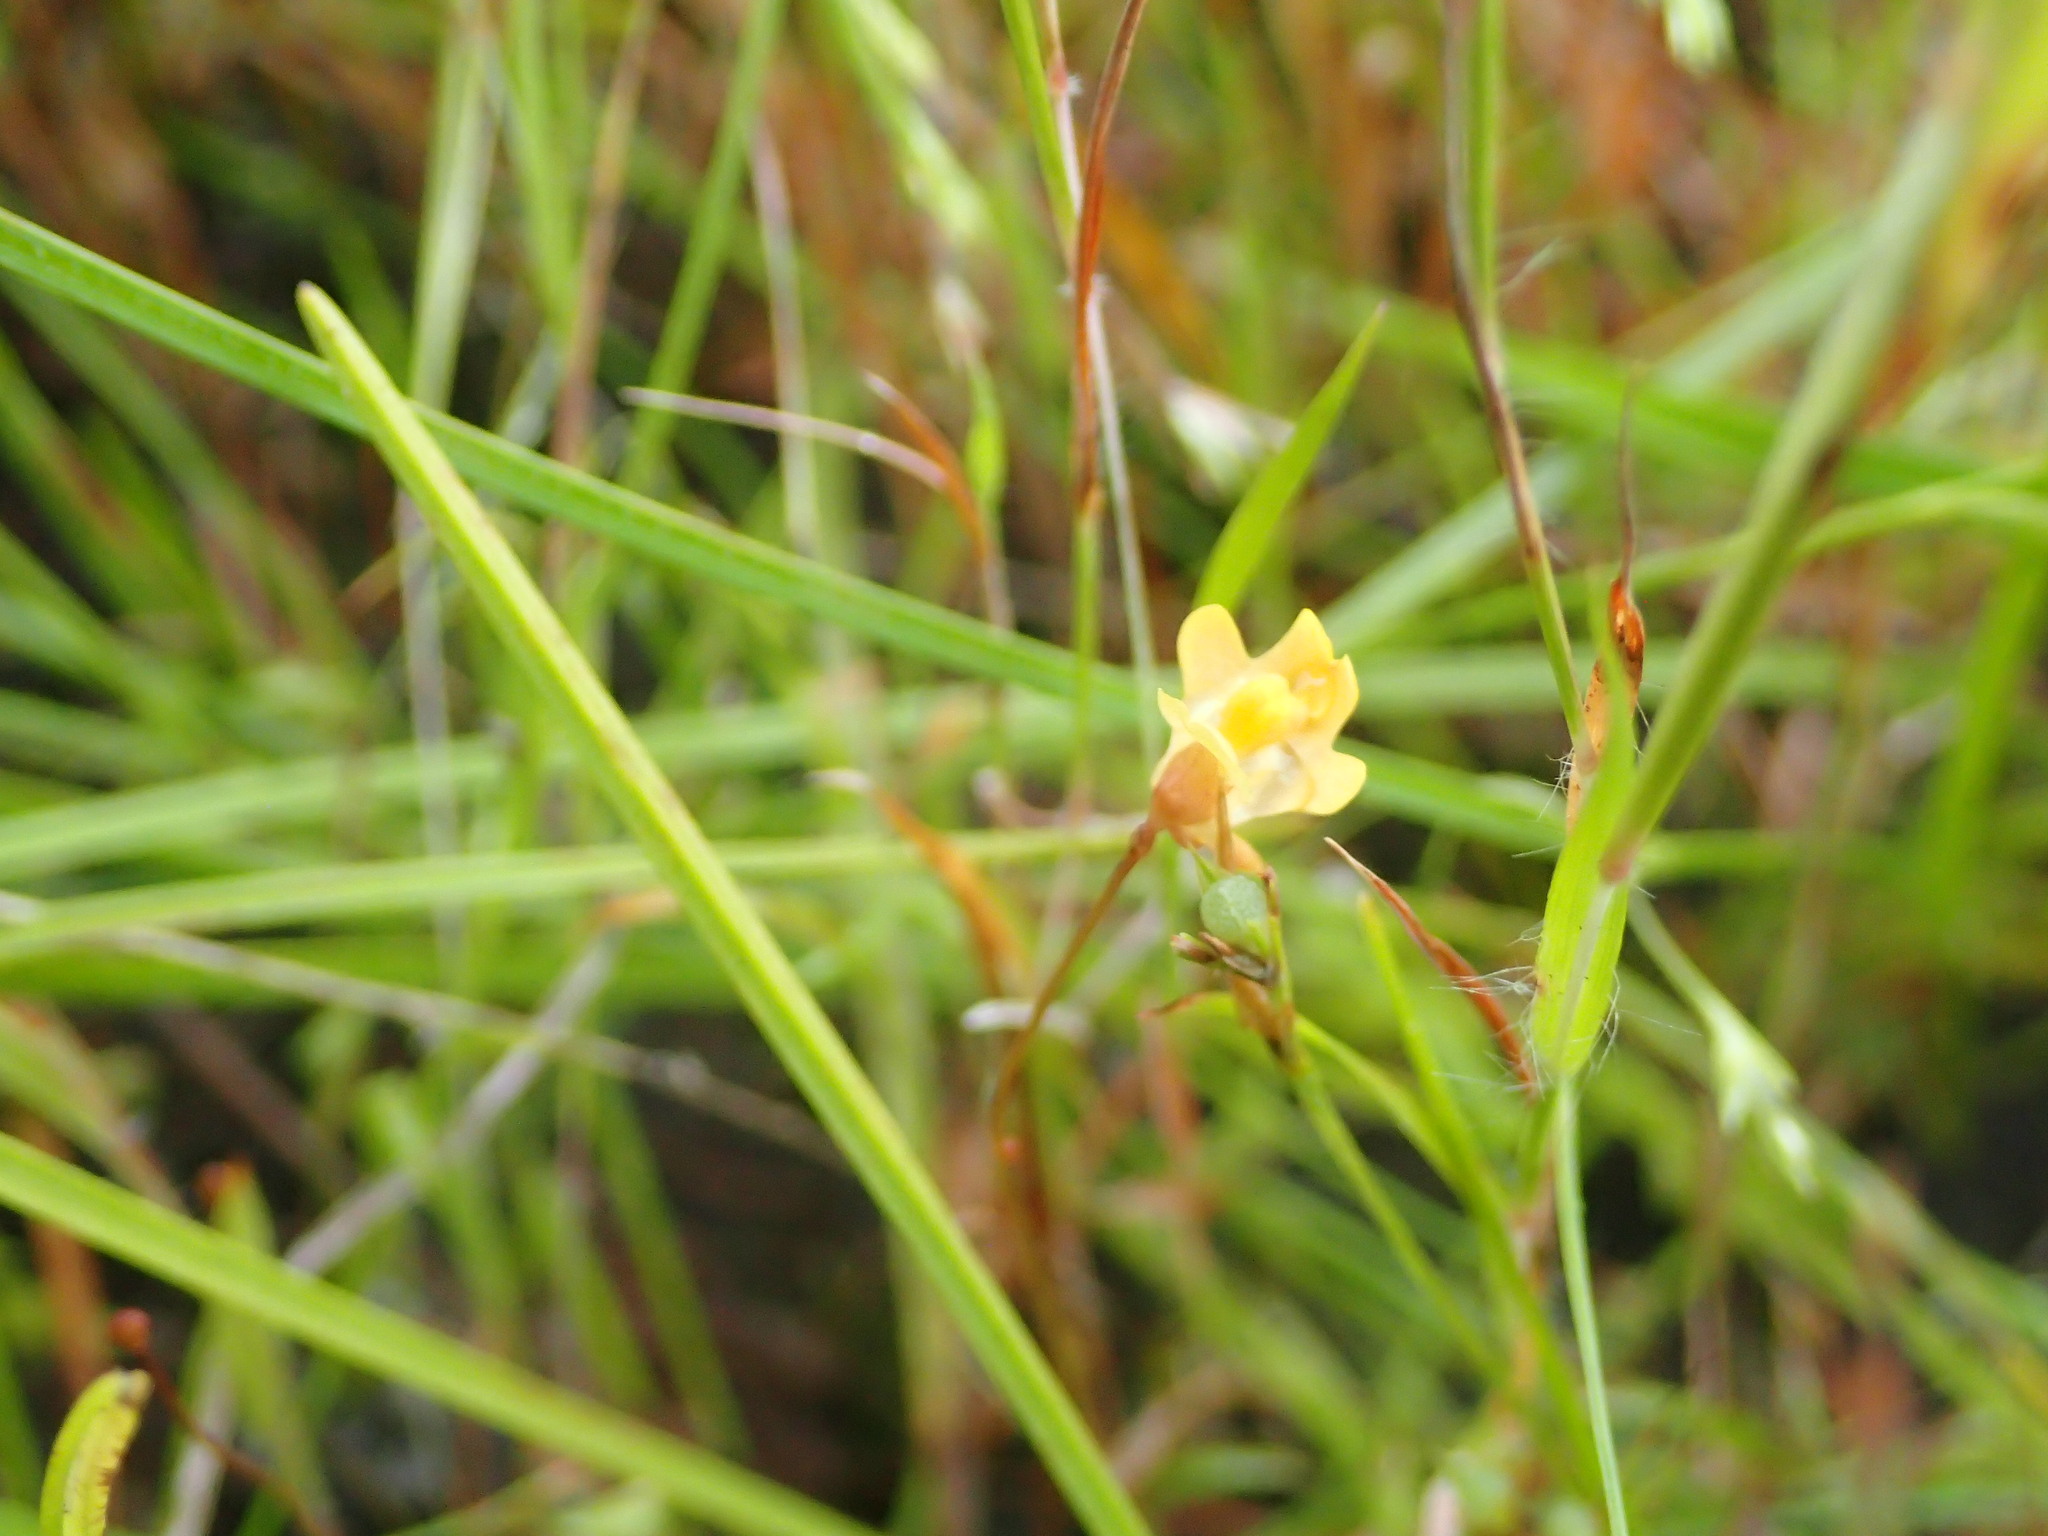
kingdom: Plantae
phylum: Tracheophyta
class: Magnoliopsida
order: Lamiales
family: Lentibulariaceae
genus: Utricularia
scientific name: Utricularia chrysantha
